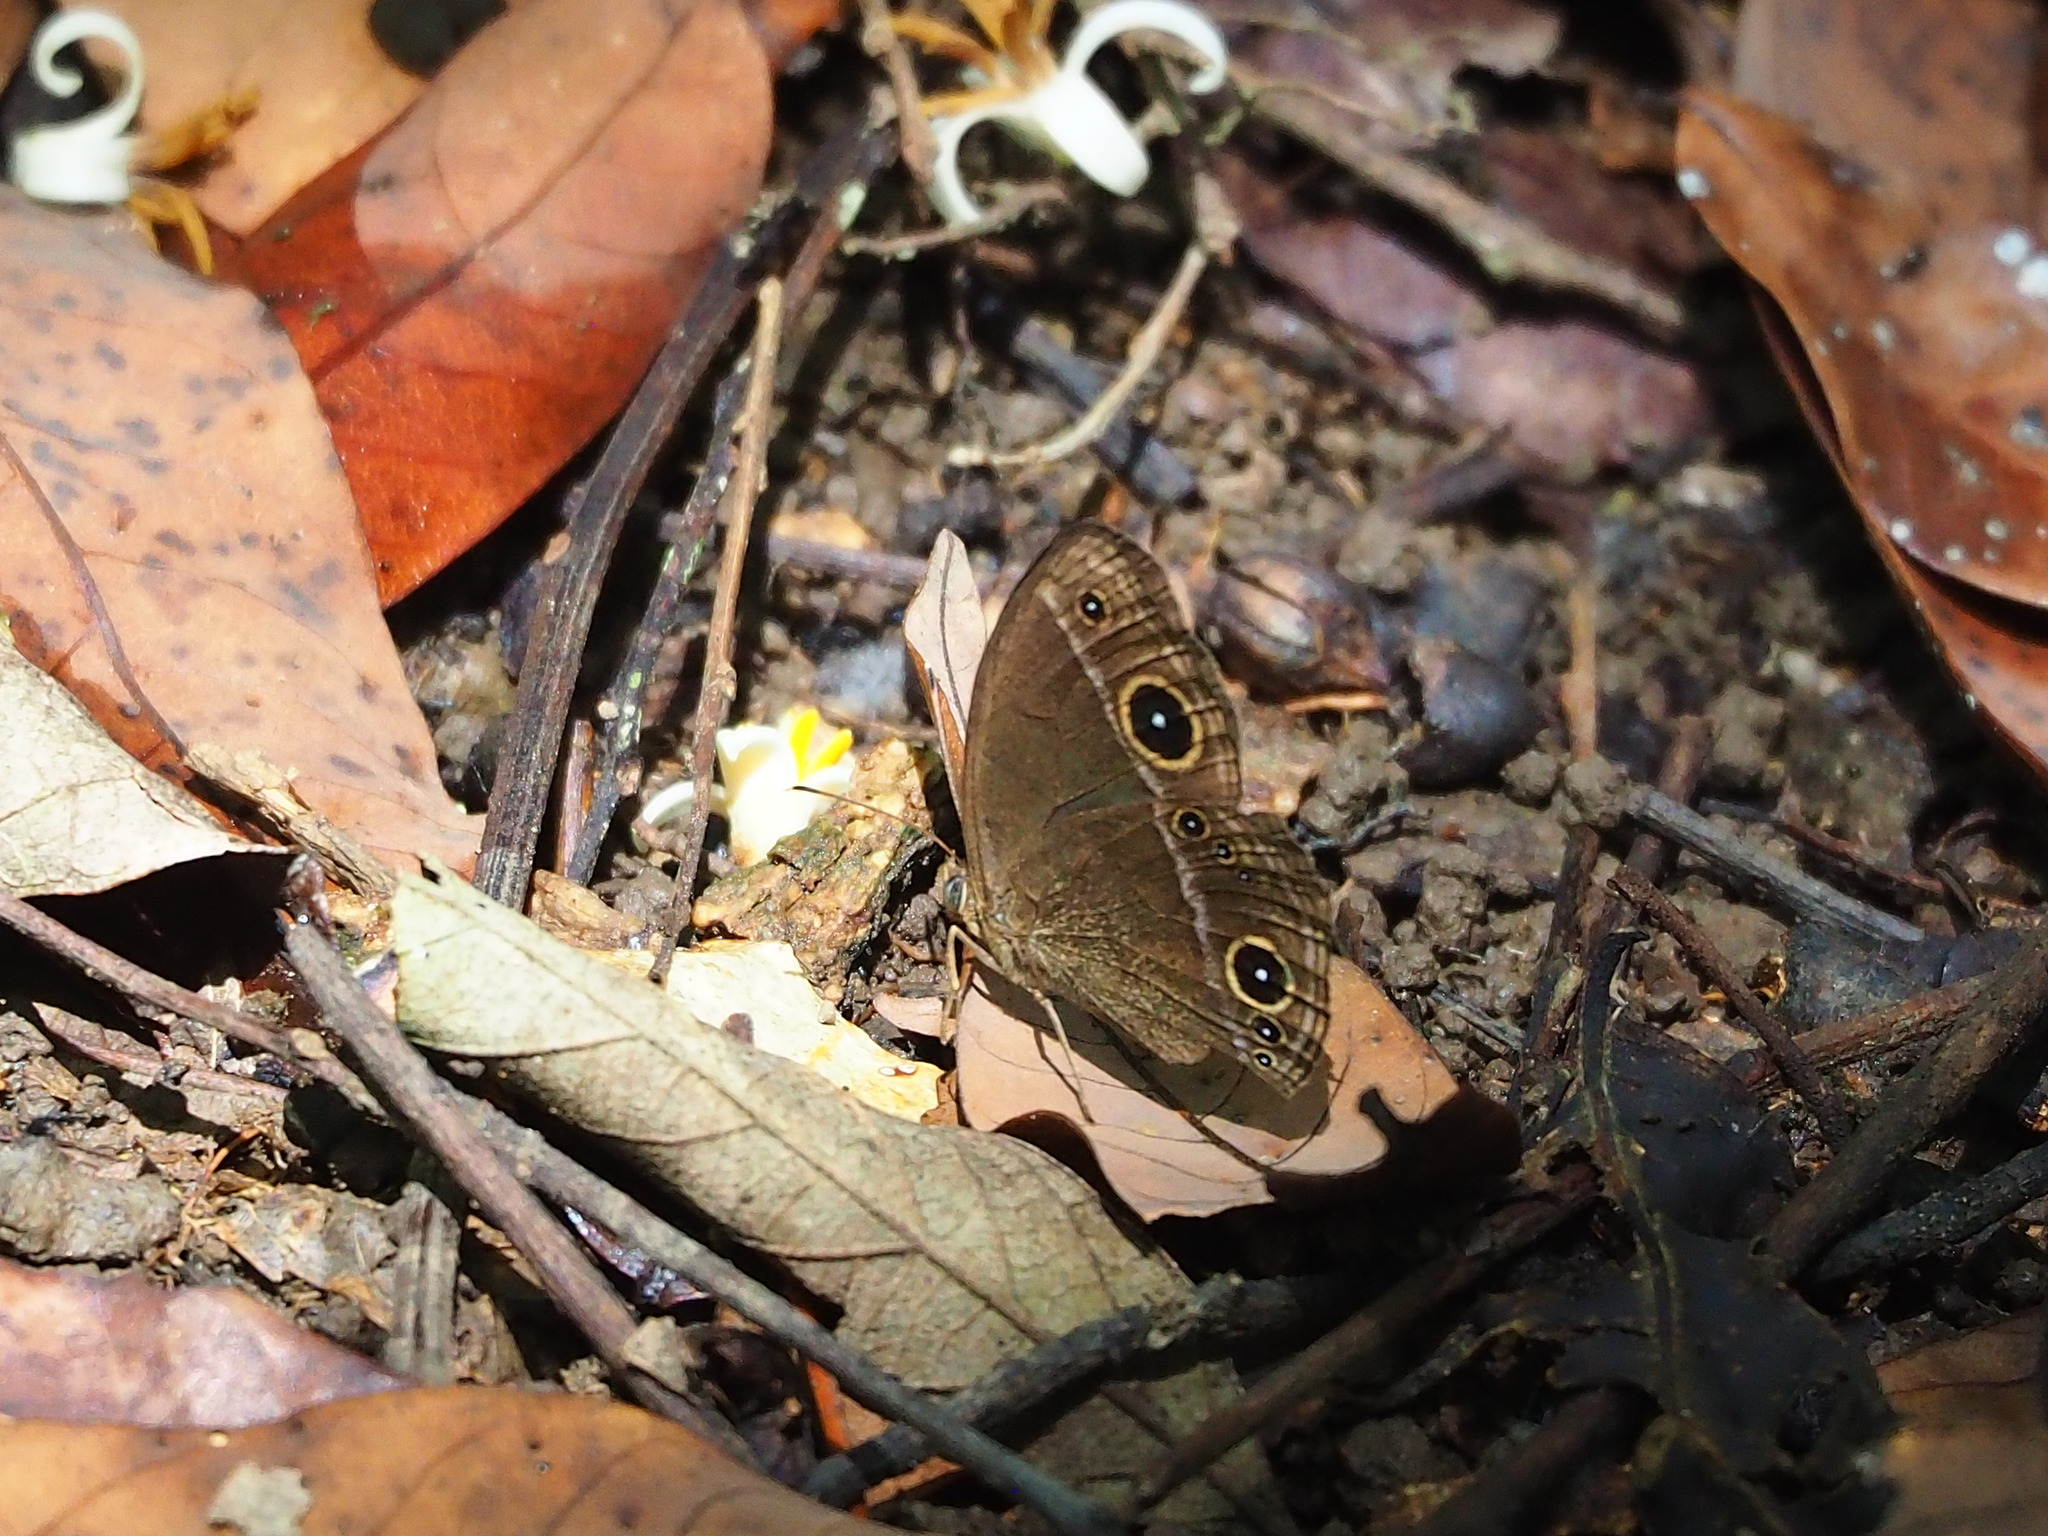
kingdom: Animalia
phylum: Arthropoda
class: Insecta
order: Lepidoptera
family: Nymphalidae
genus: Mycalesis
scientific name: Mycalesis horsfieldii
